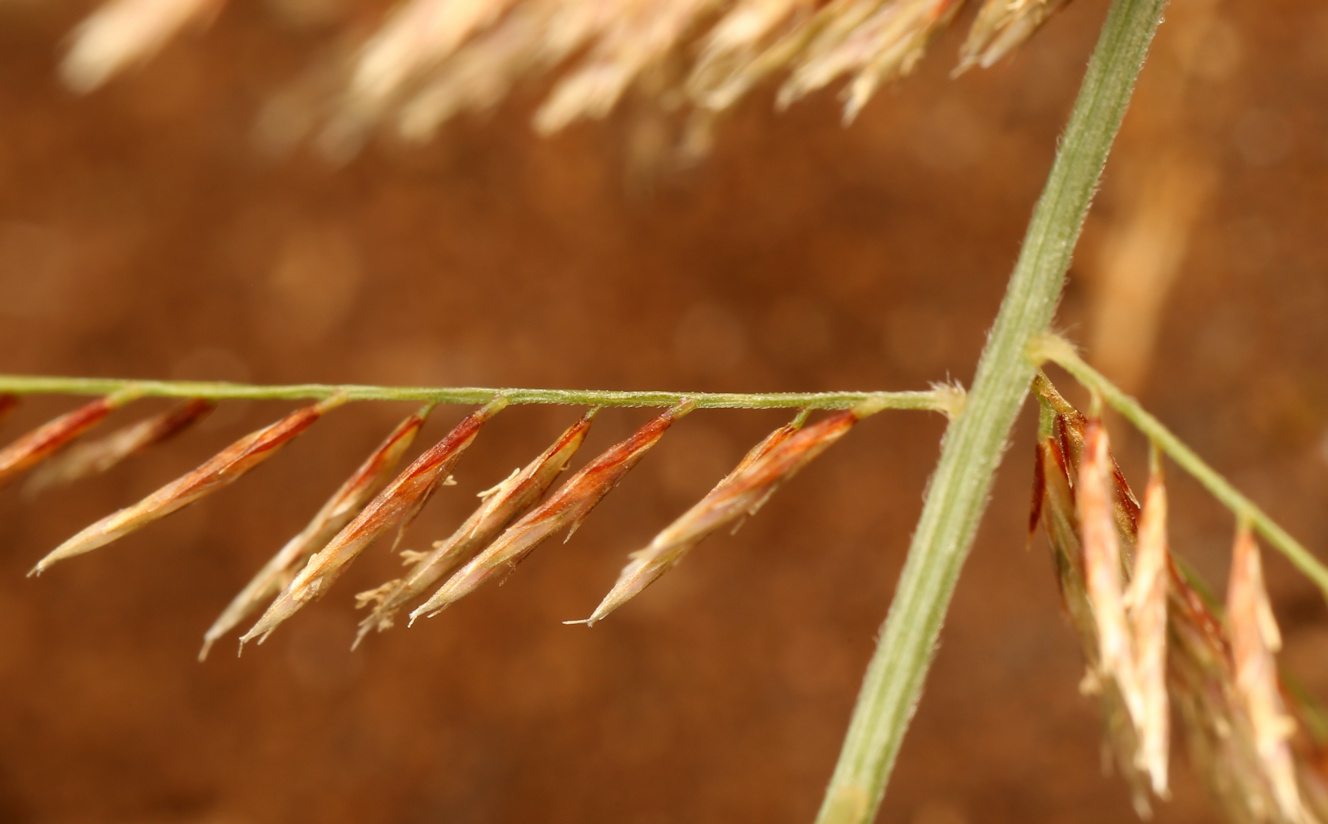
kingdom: Plantae
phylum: Tracheophyta
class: Liliopsida
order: Poales
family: Poaceae
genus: Pogonarthria
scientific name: Pogonarthria squarrosa
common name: Grass
